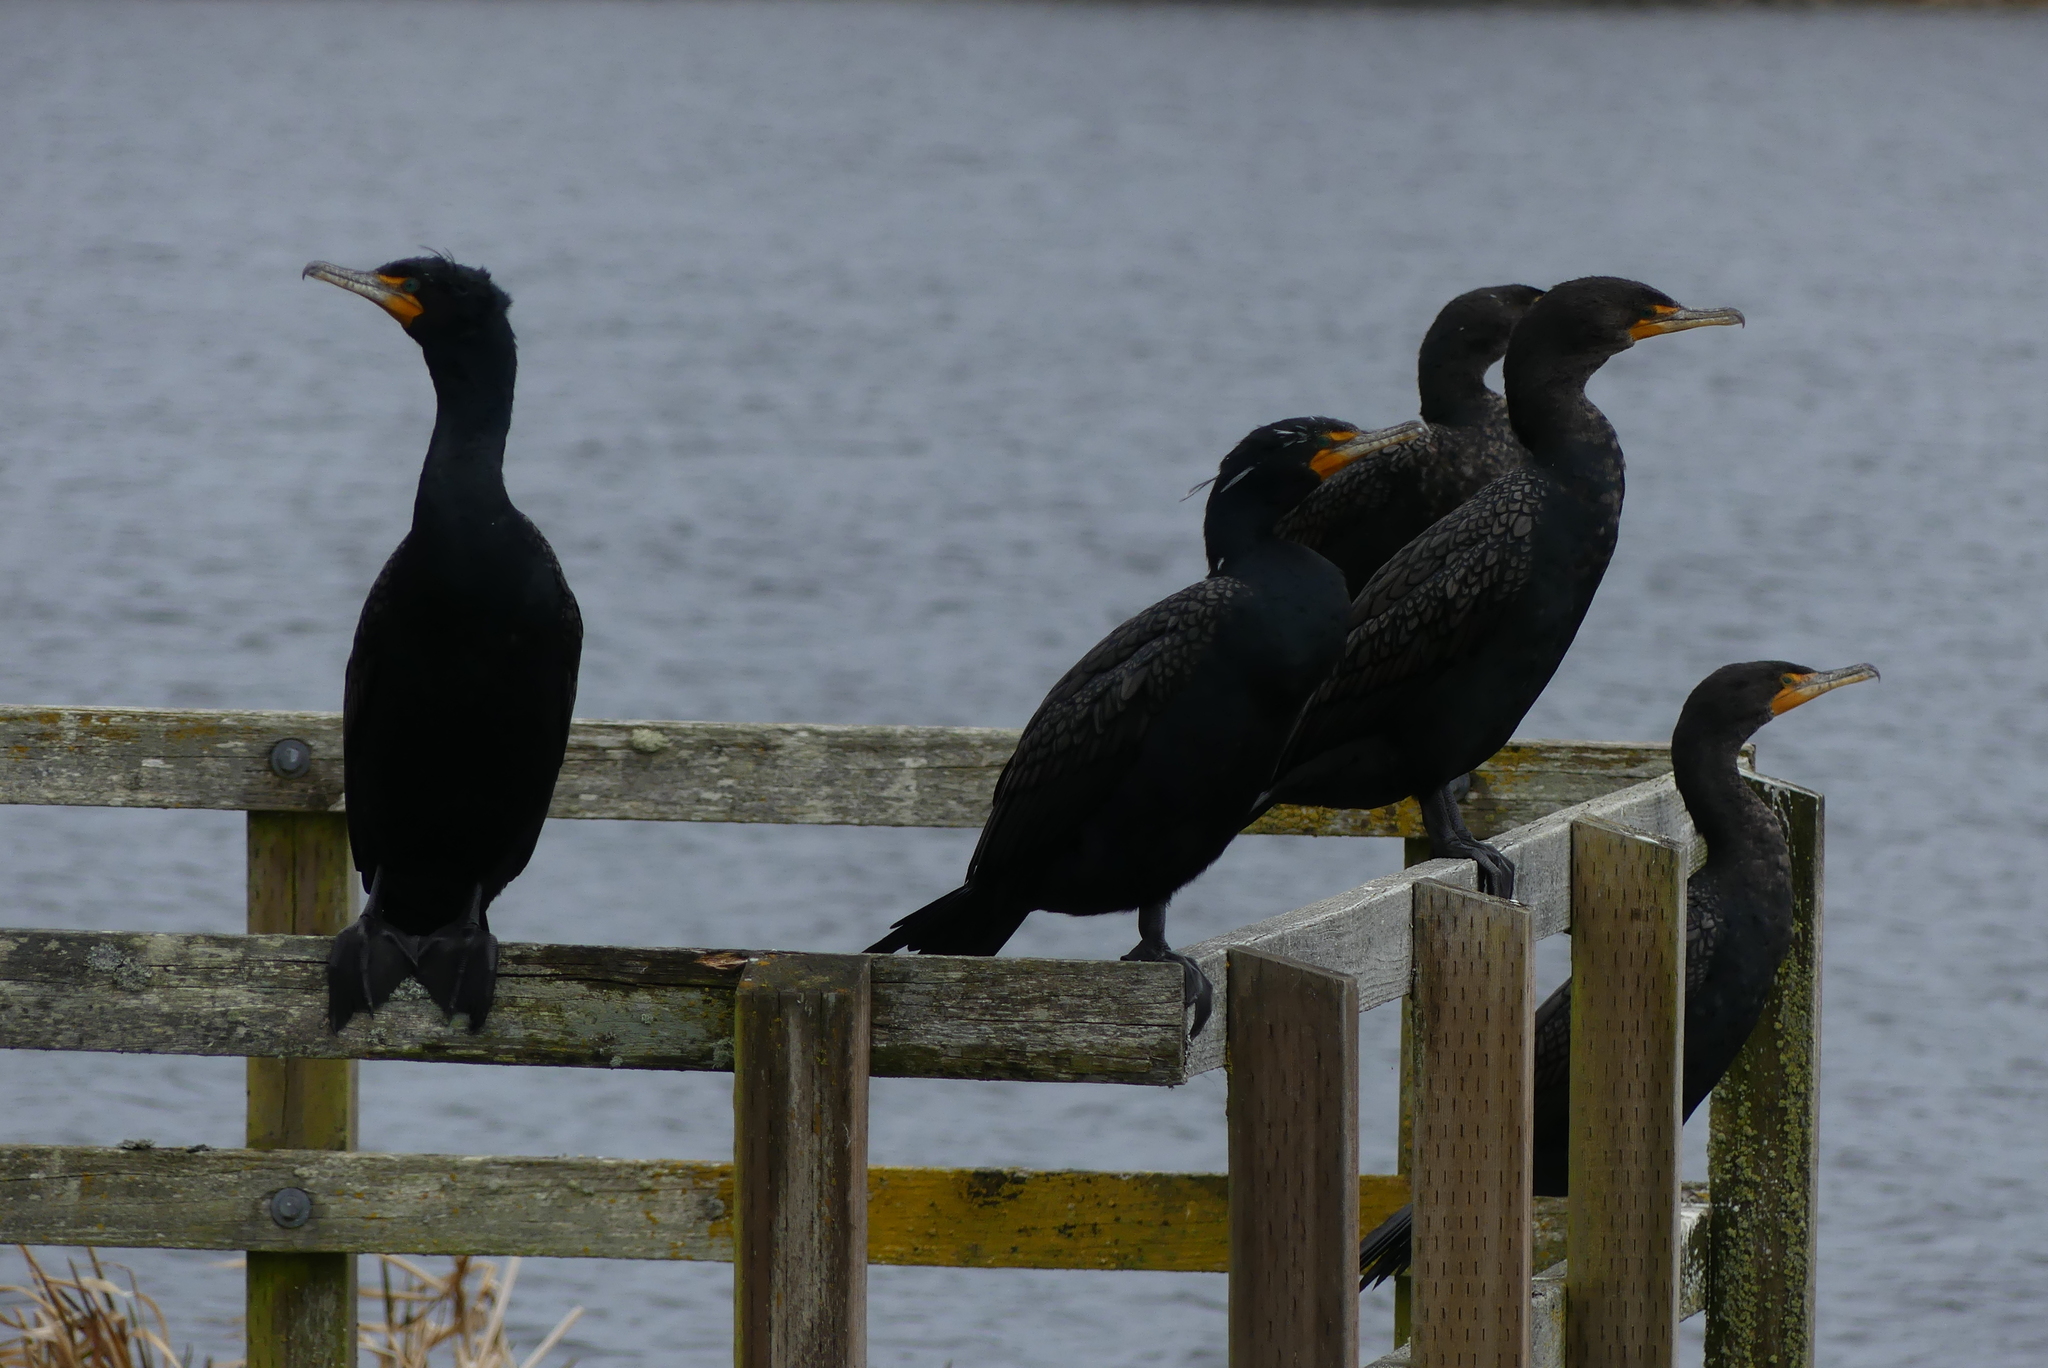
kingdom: Animalia
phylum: Chordata
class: Aves
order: Suliformes
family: Phalacrocoracidae
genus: Phalacrocorax
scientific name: Phalacrocorax auritus
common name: Double-crested cormorant
